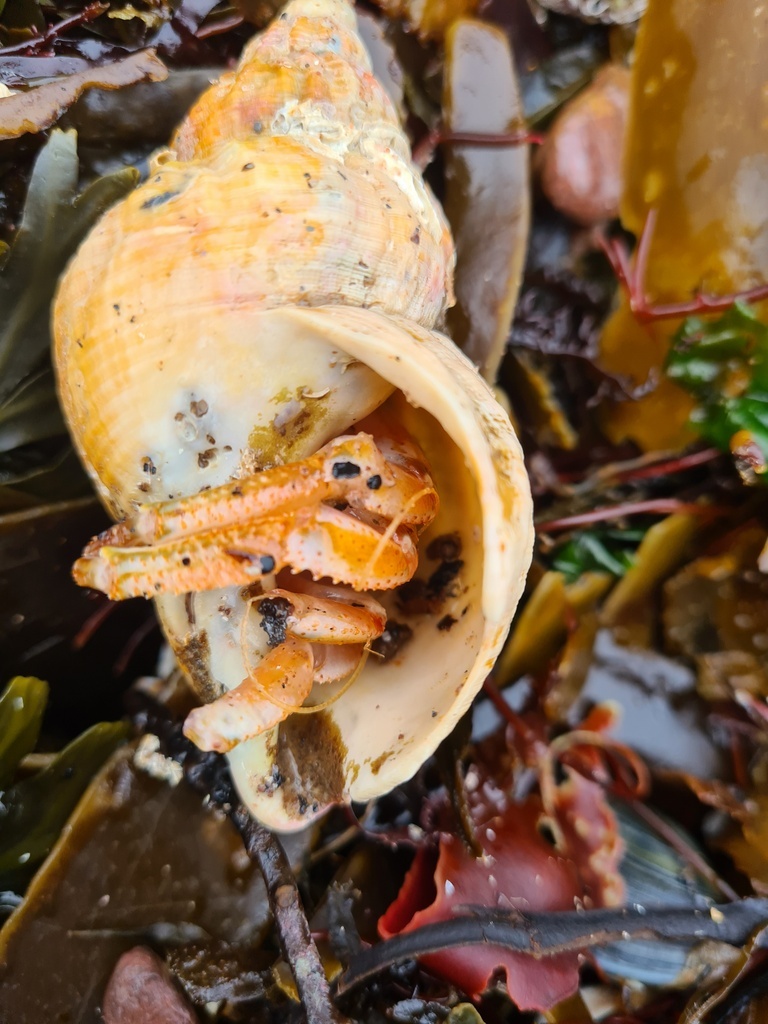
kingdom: Animalia
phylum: Arthropoda
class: Malacostraca
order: Decapoda
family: Paguridae
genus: Pagurus
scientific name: Pagurus bernhardus
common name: Hermit crab
